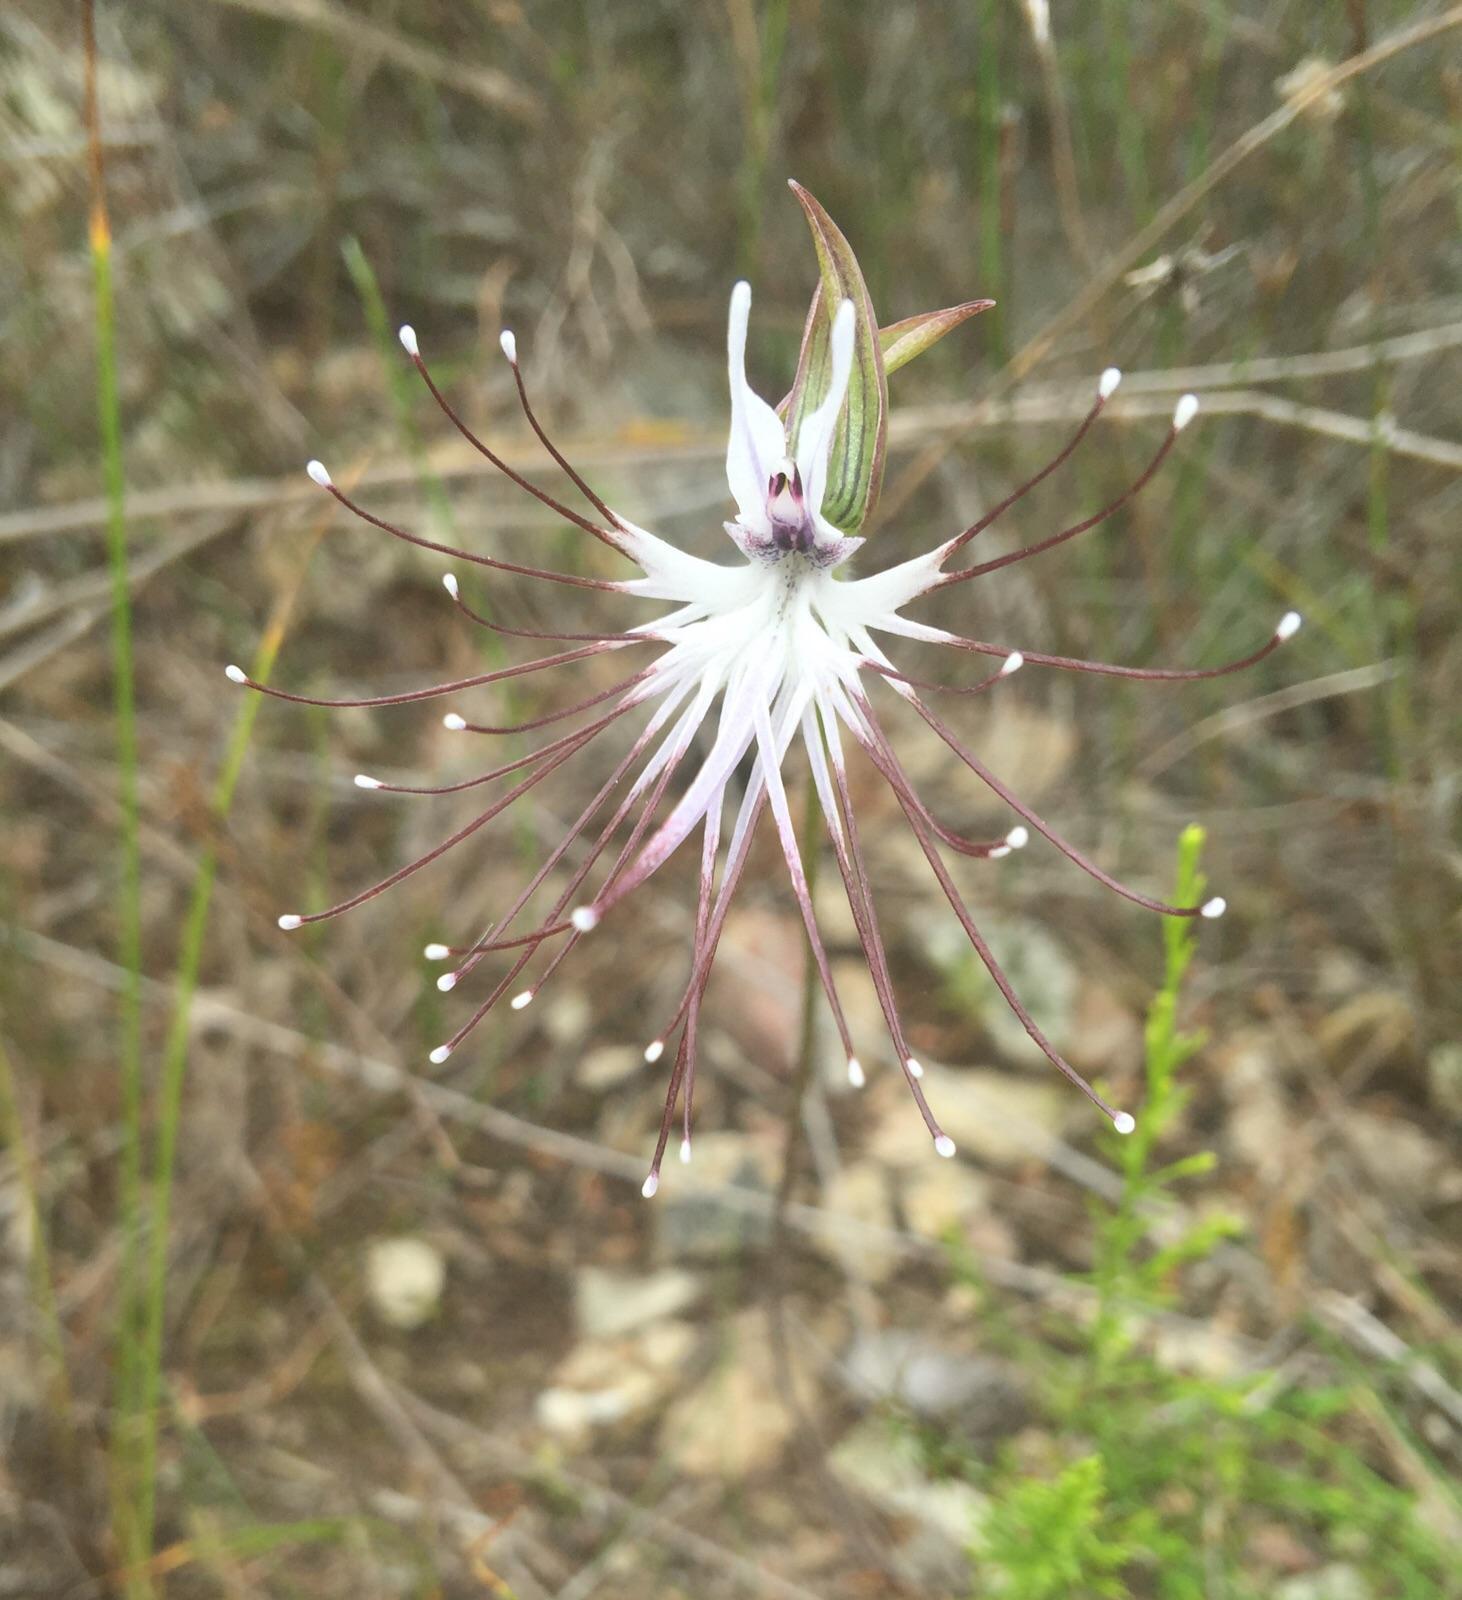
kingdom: Plantae
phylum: Tracheophyta
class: Liliopsida
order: Asparagales
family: Orchidaceae
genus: Holothrix
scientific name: Holothrix etheliae
